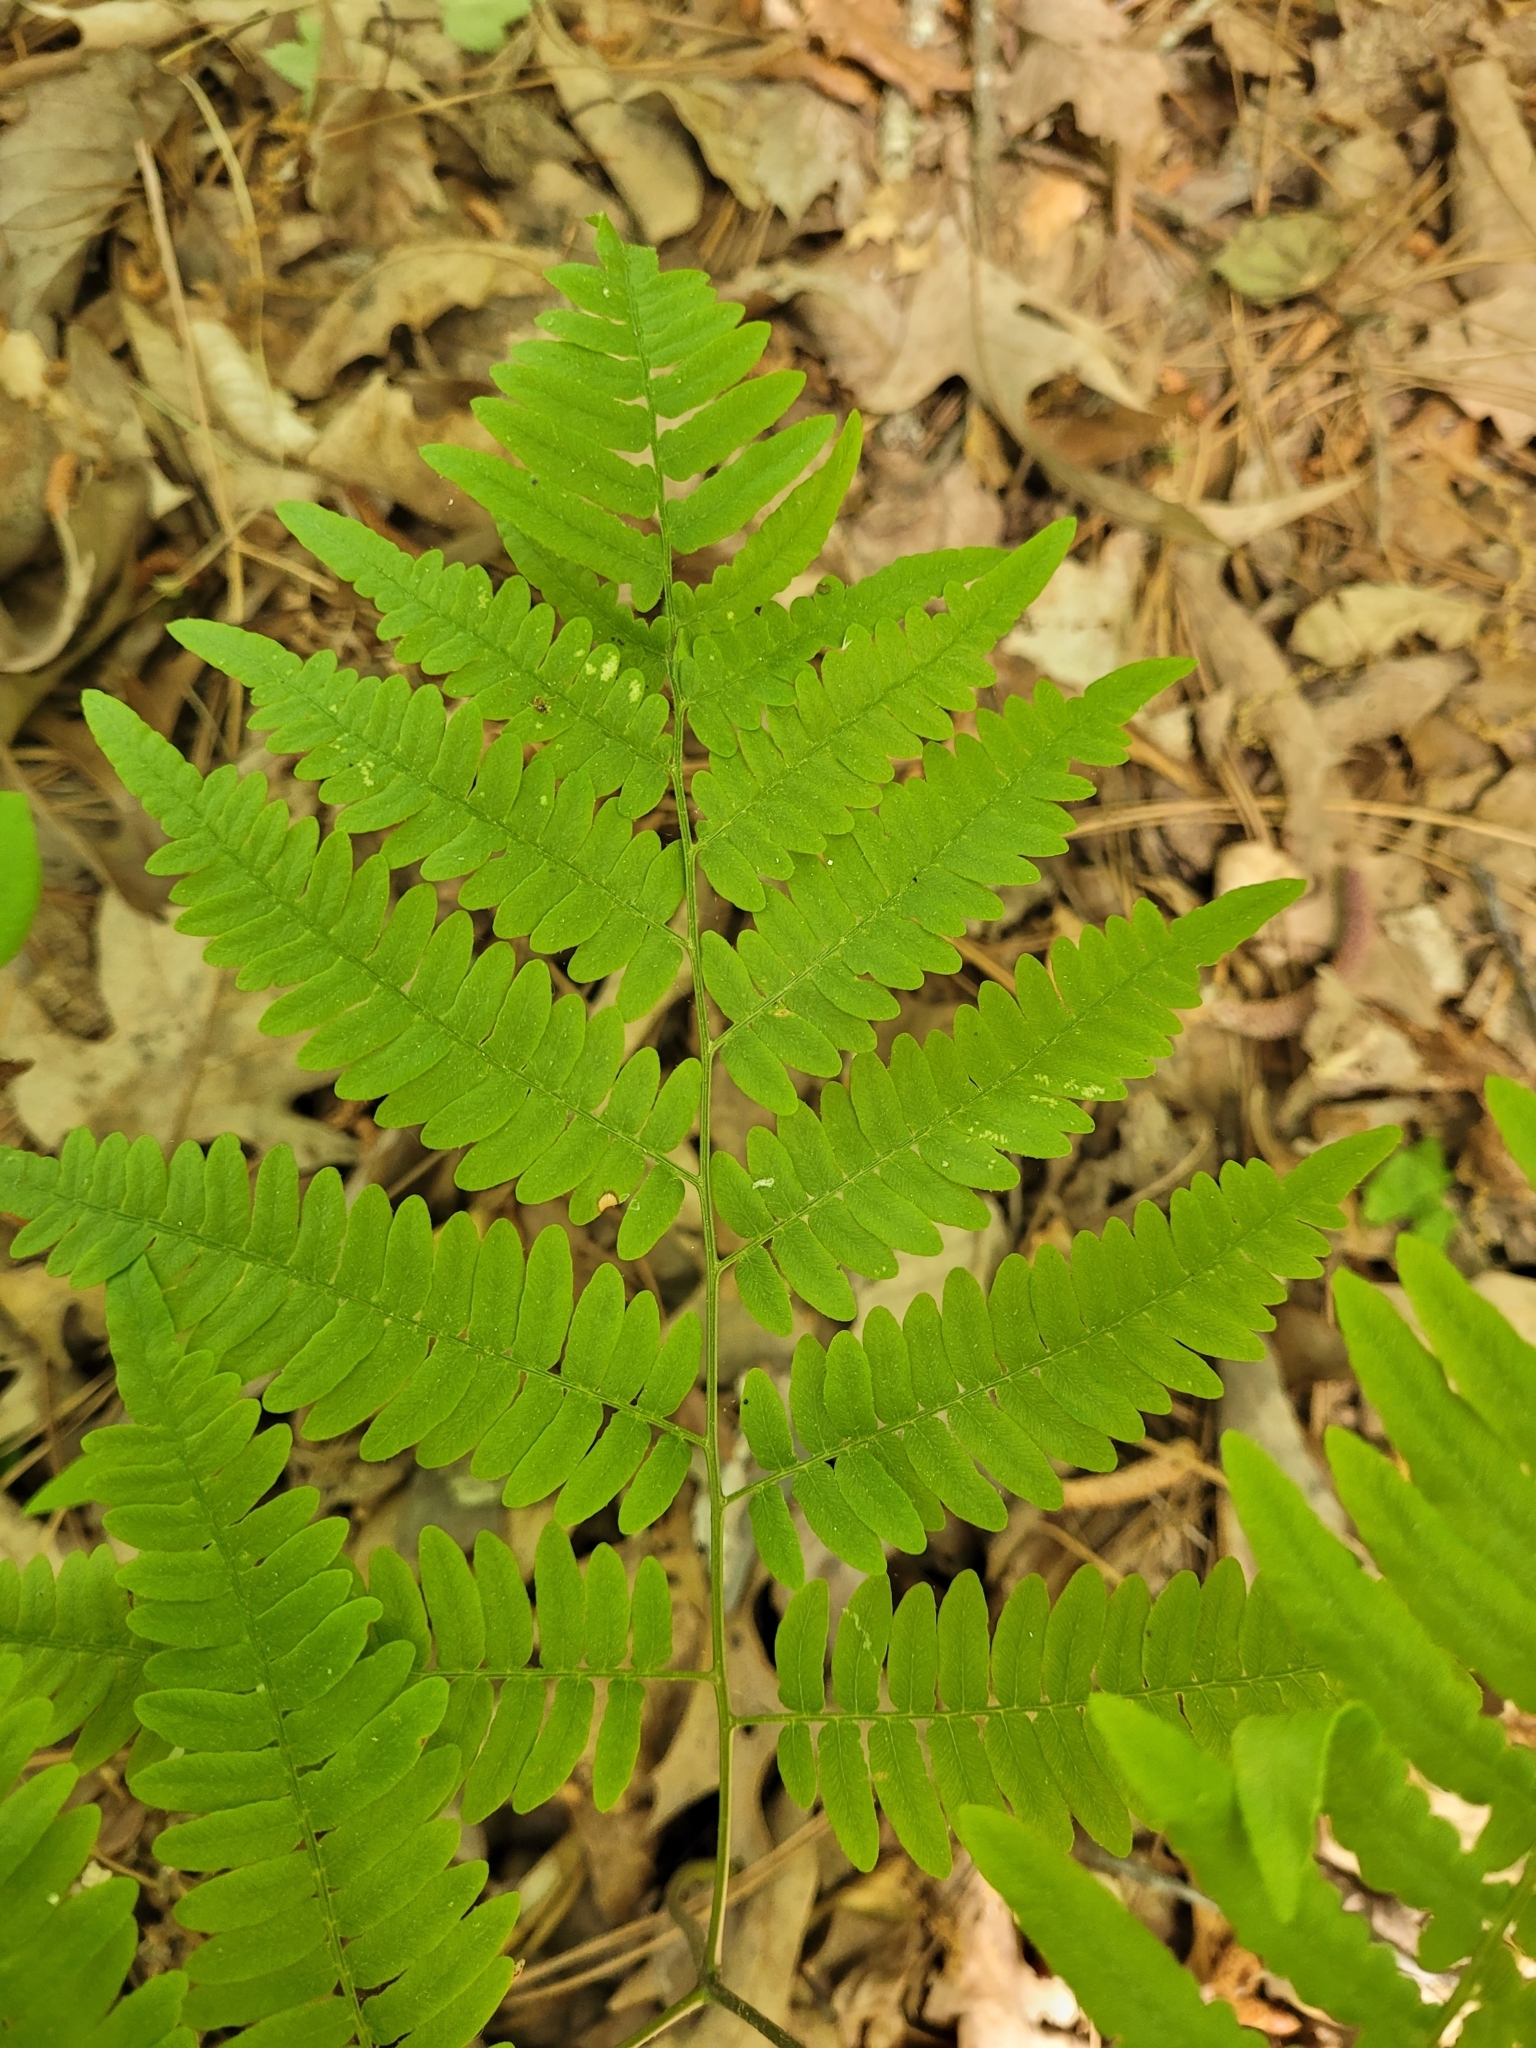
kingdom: Plantae
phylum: Tracheophyta
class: Polypodiopsida
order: Polypodiales
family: Dennstaedtiaceae
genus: Pteridium
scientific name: Pteridium aquilinum
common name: Bracken
